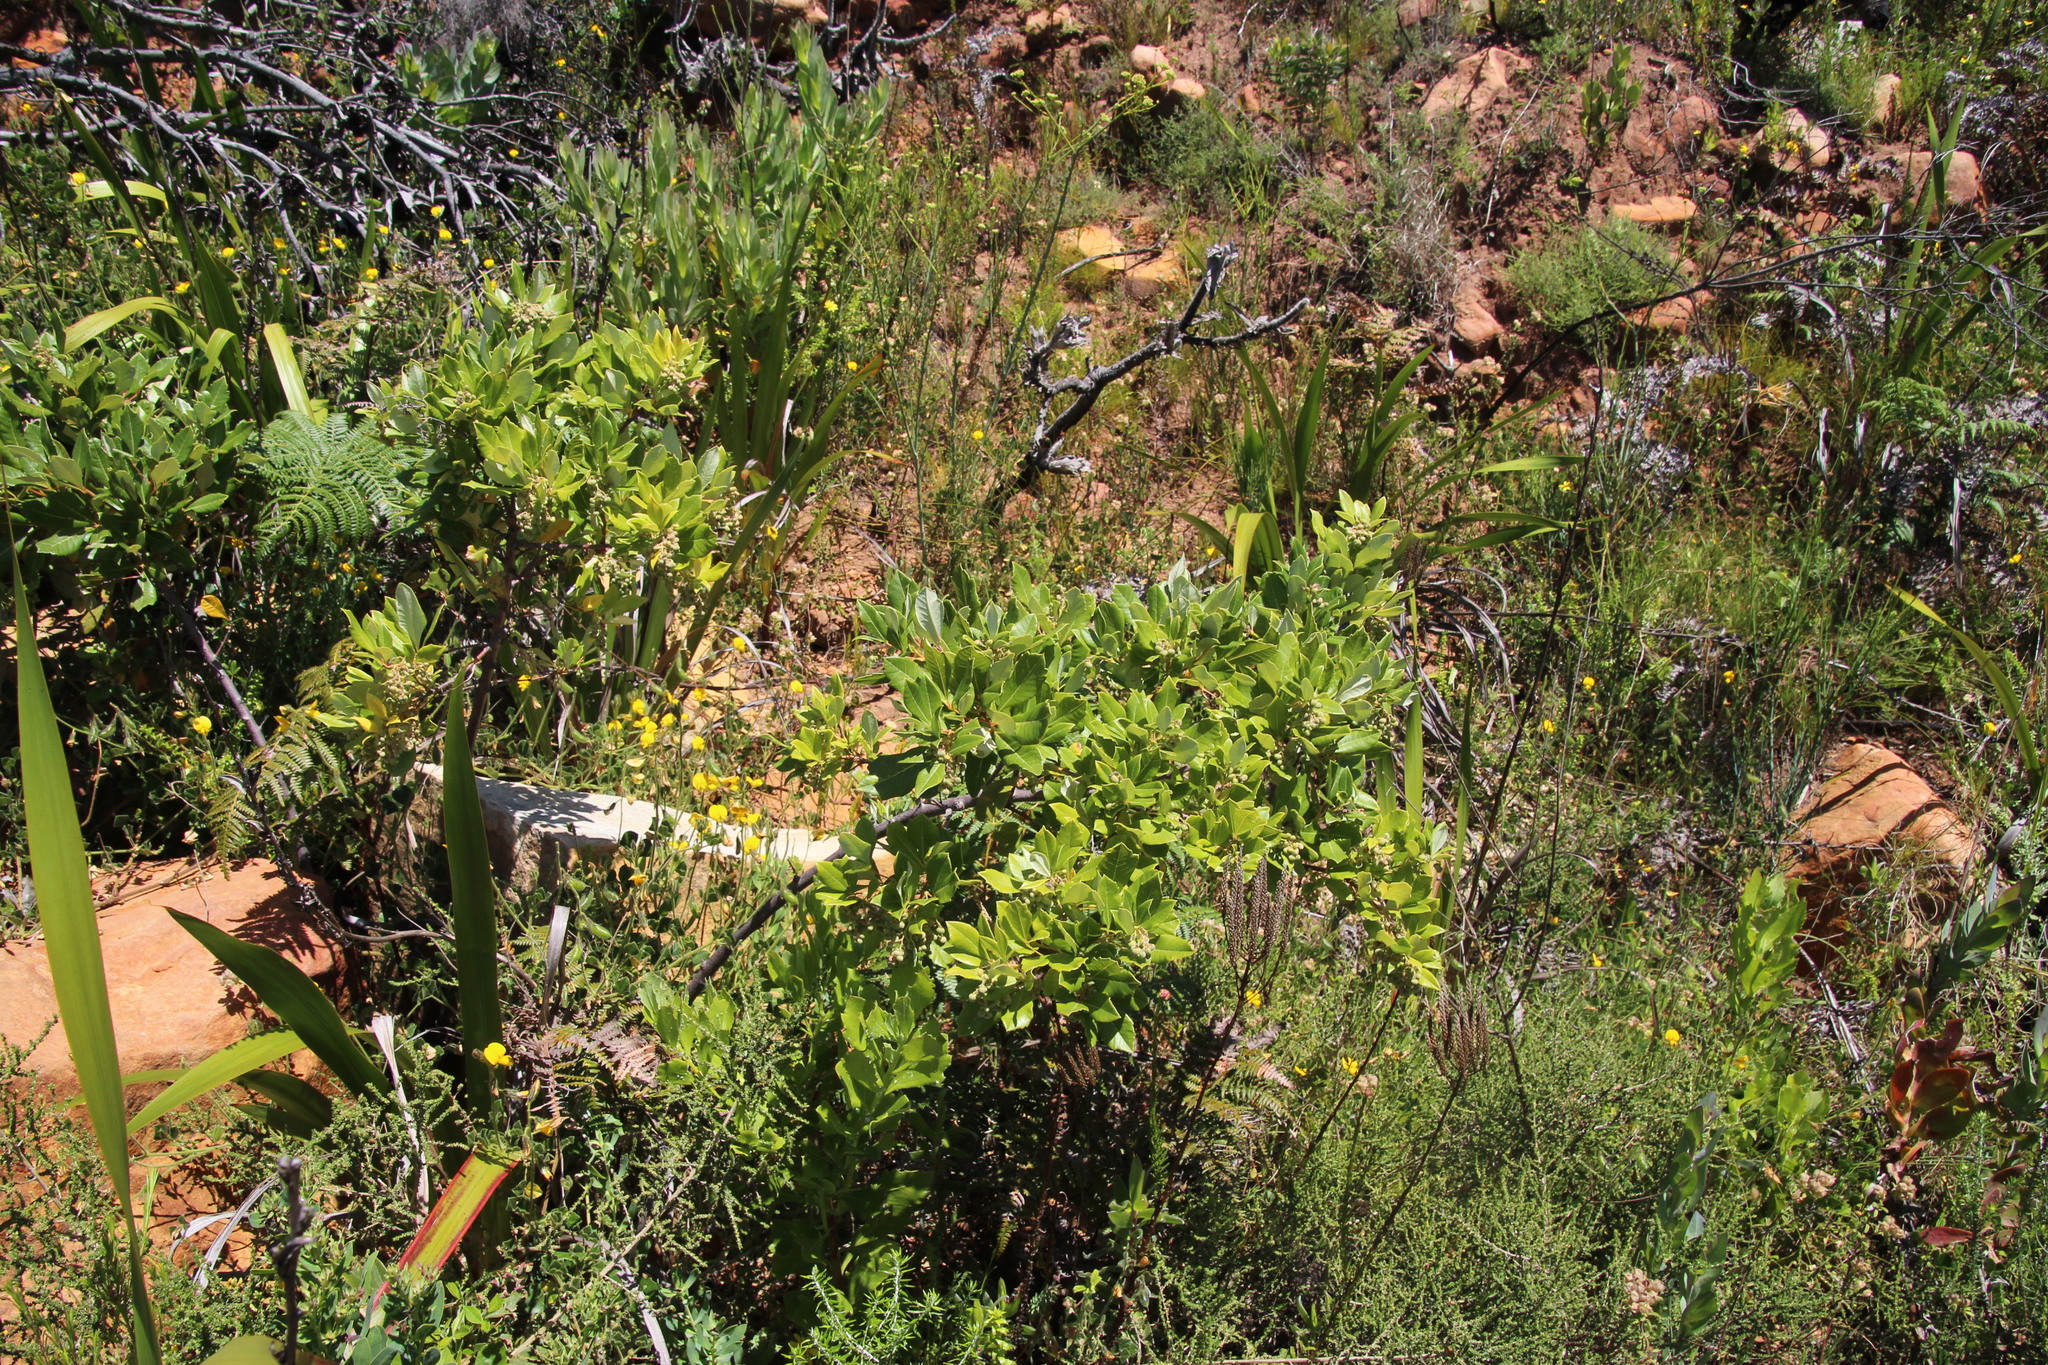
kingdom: Plantae
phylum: Tracheophyta
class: Magnoliopsida
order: Sapindales
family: Anacardiaceae
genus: Searsia
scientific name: Searsia tomentosa
